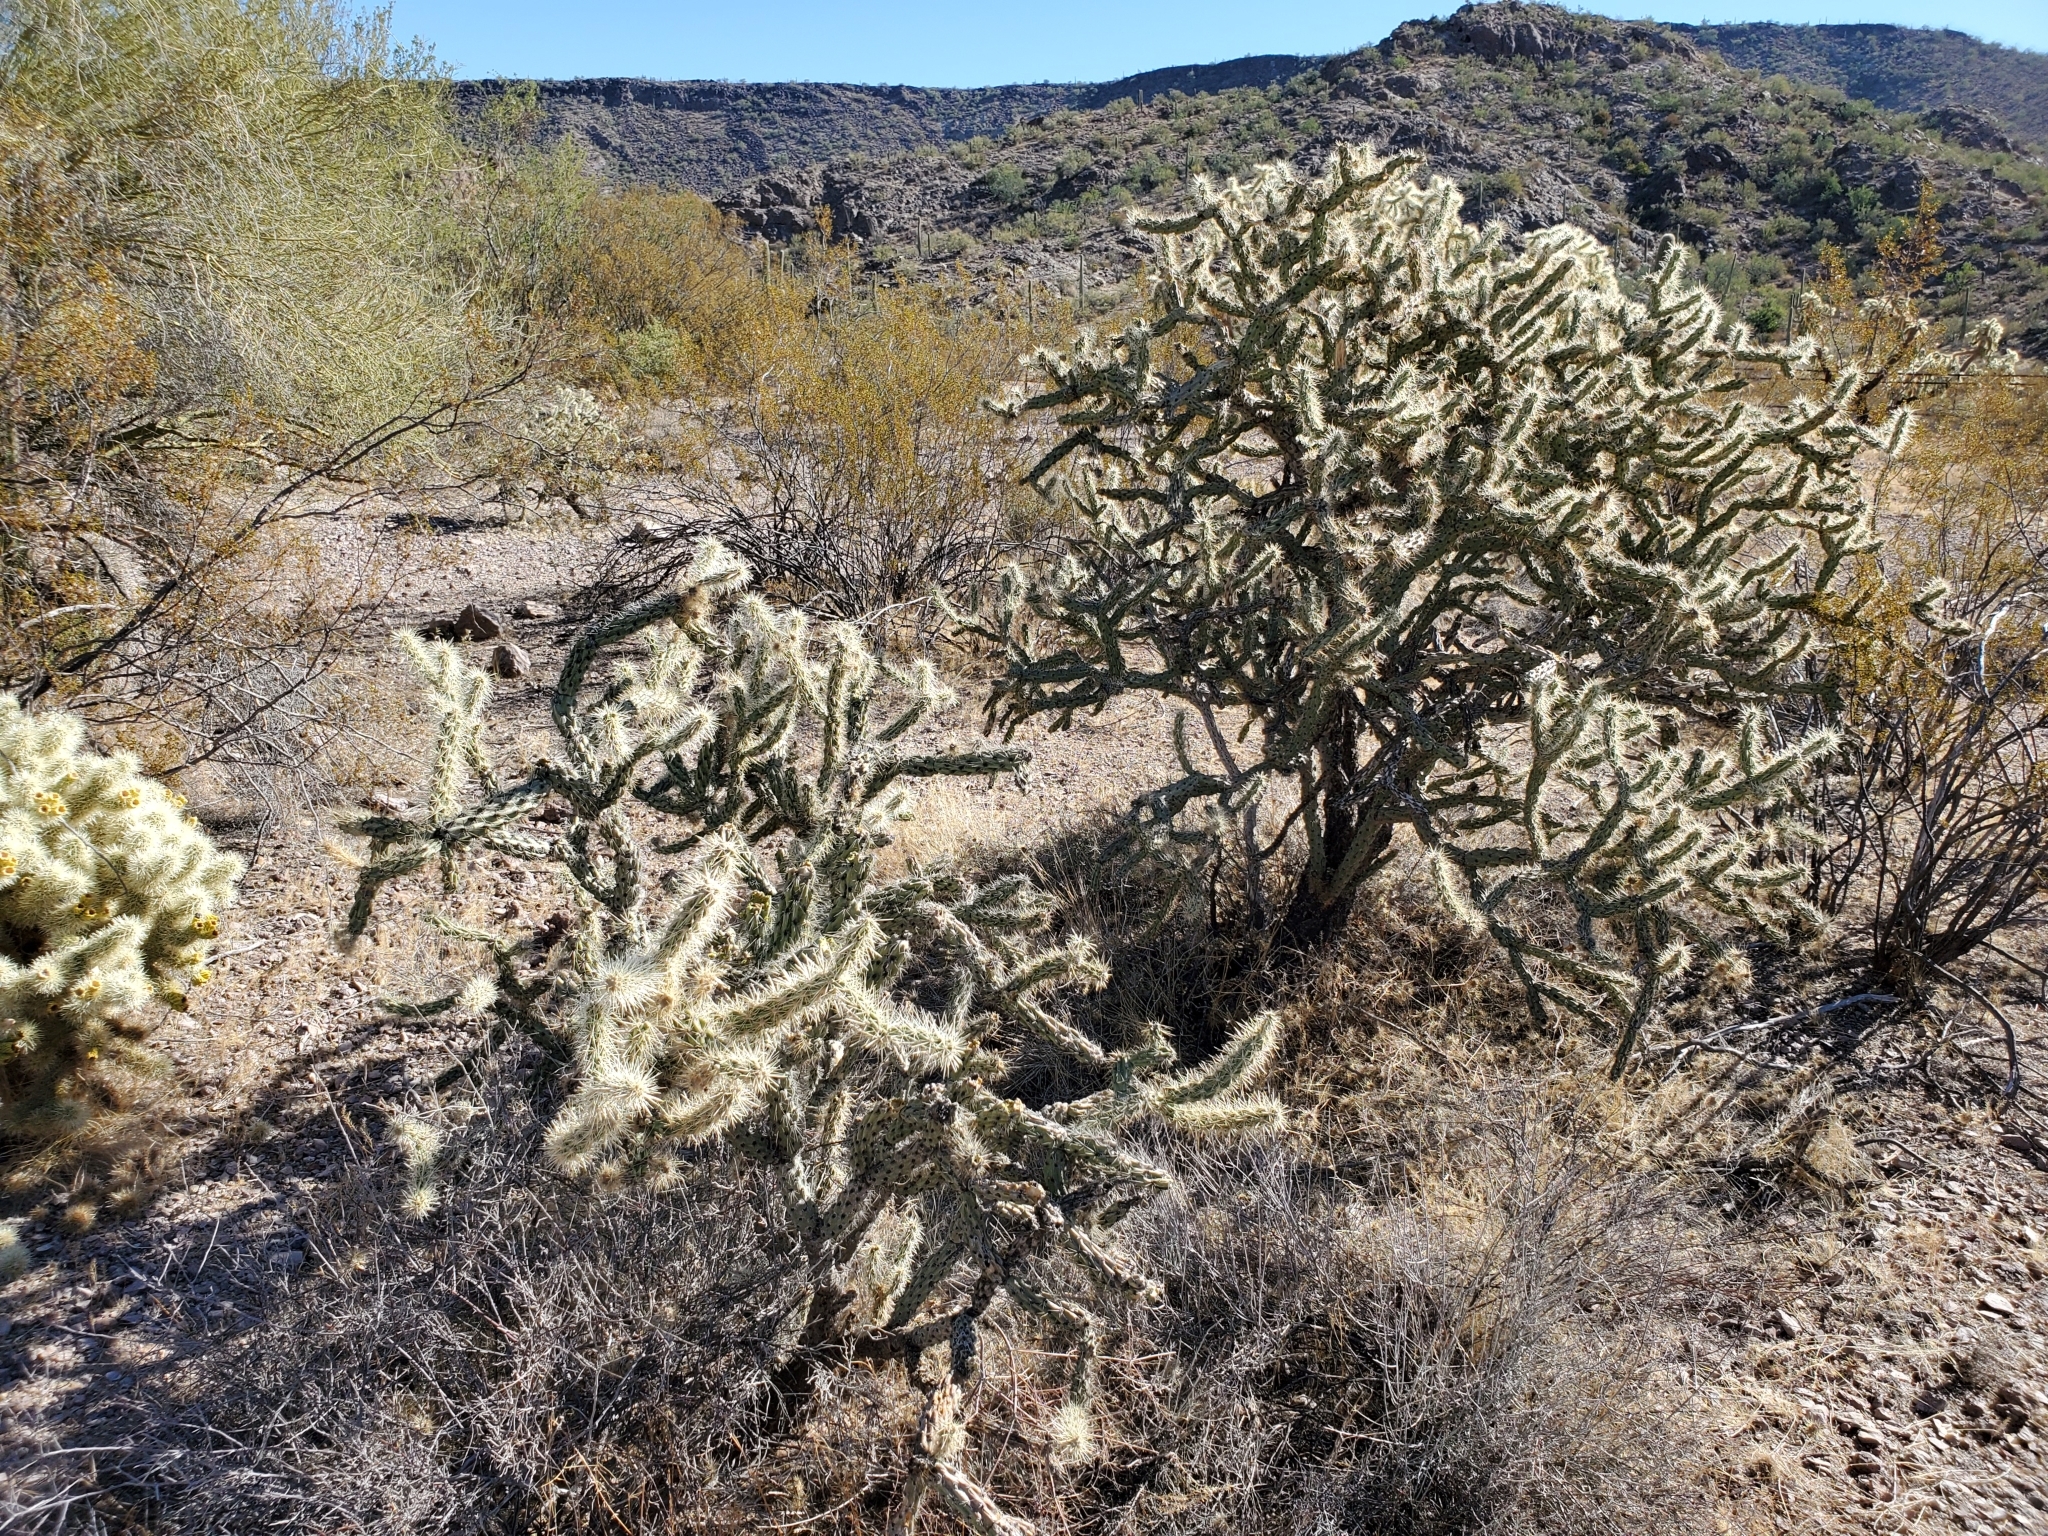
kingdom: Plantae
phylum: Tracheophyta
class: Magnoliopsida
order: Caryophyllales
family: Cactaceae
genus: Cylindropuntia
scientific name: Cylindropuntia acanthocarpa
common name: Buckhorn cholla
